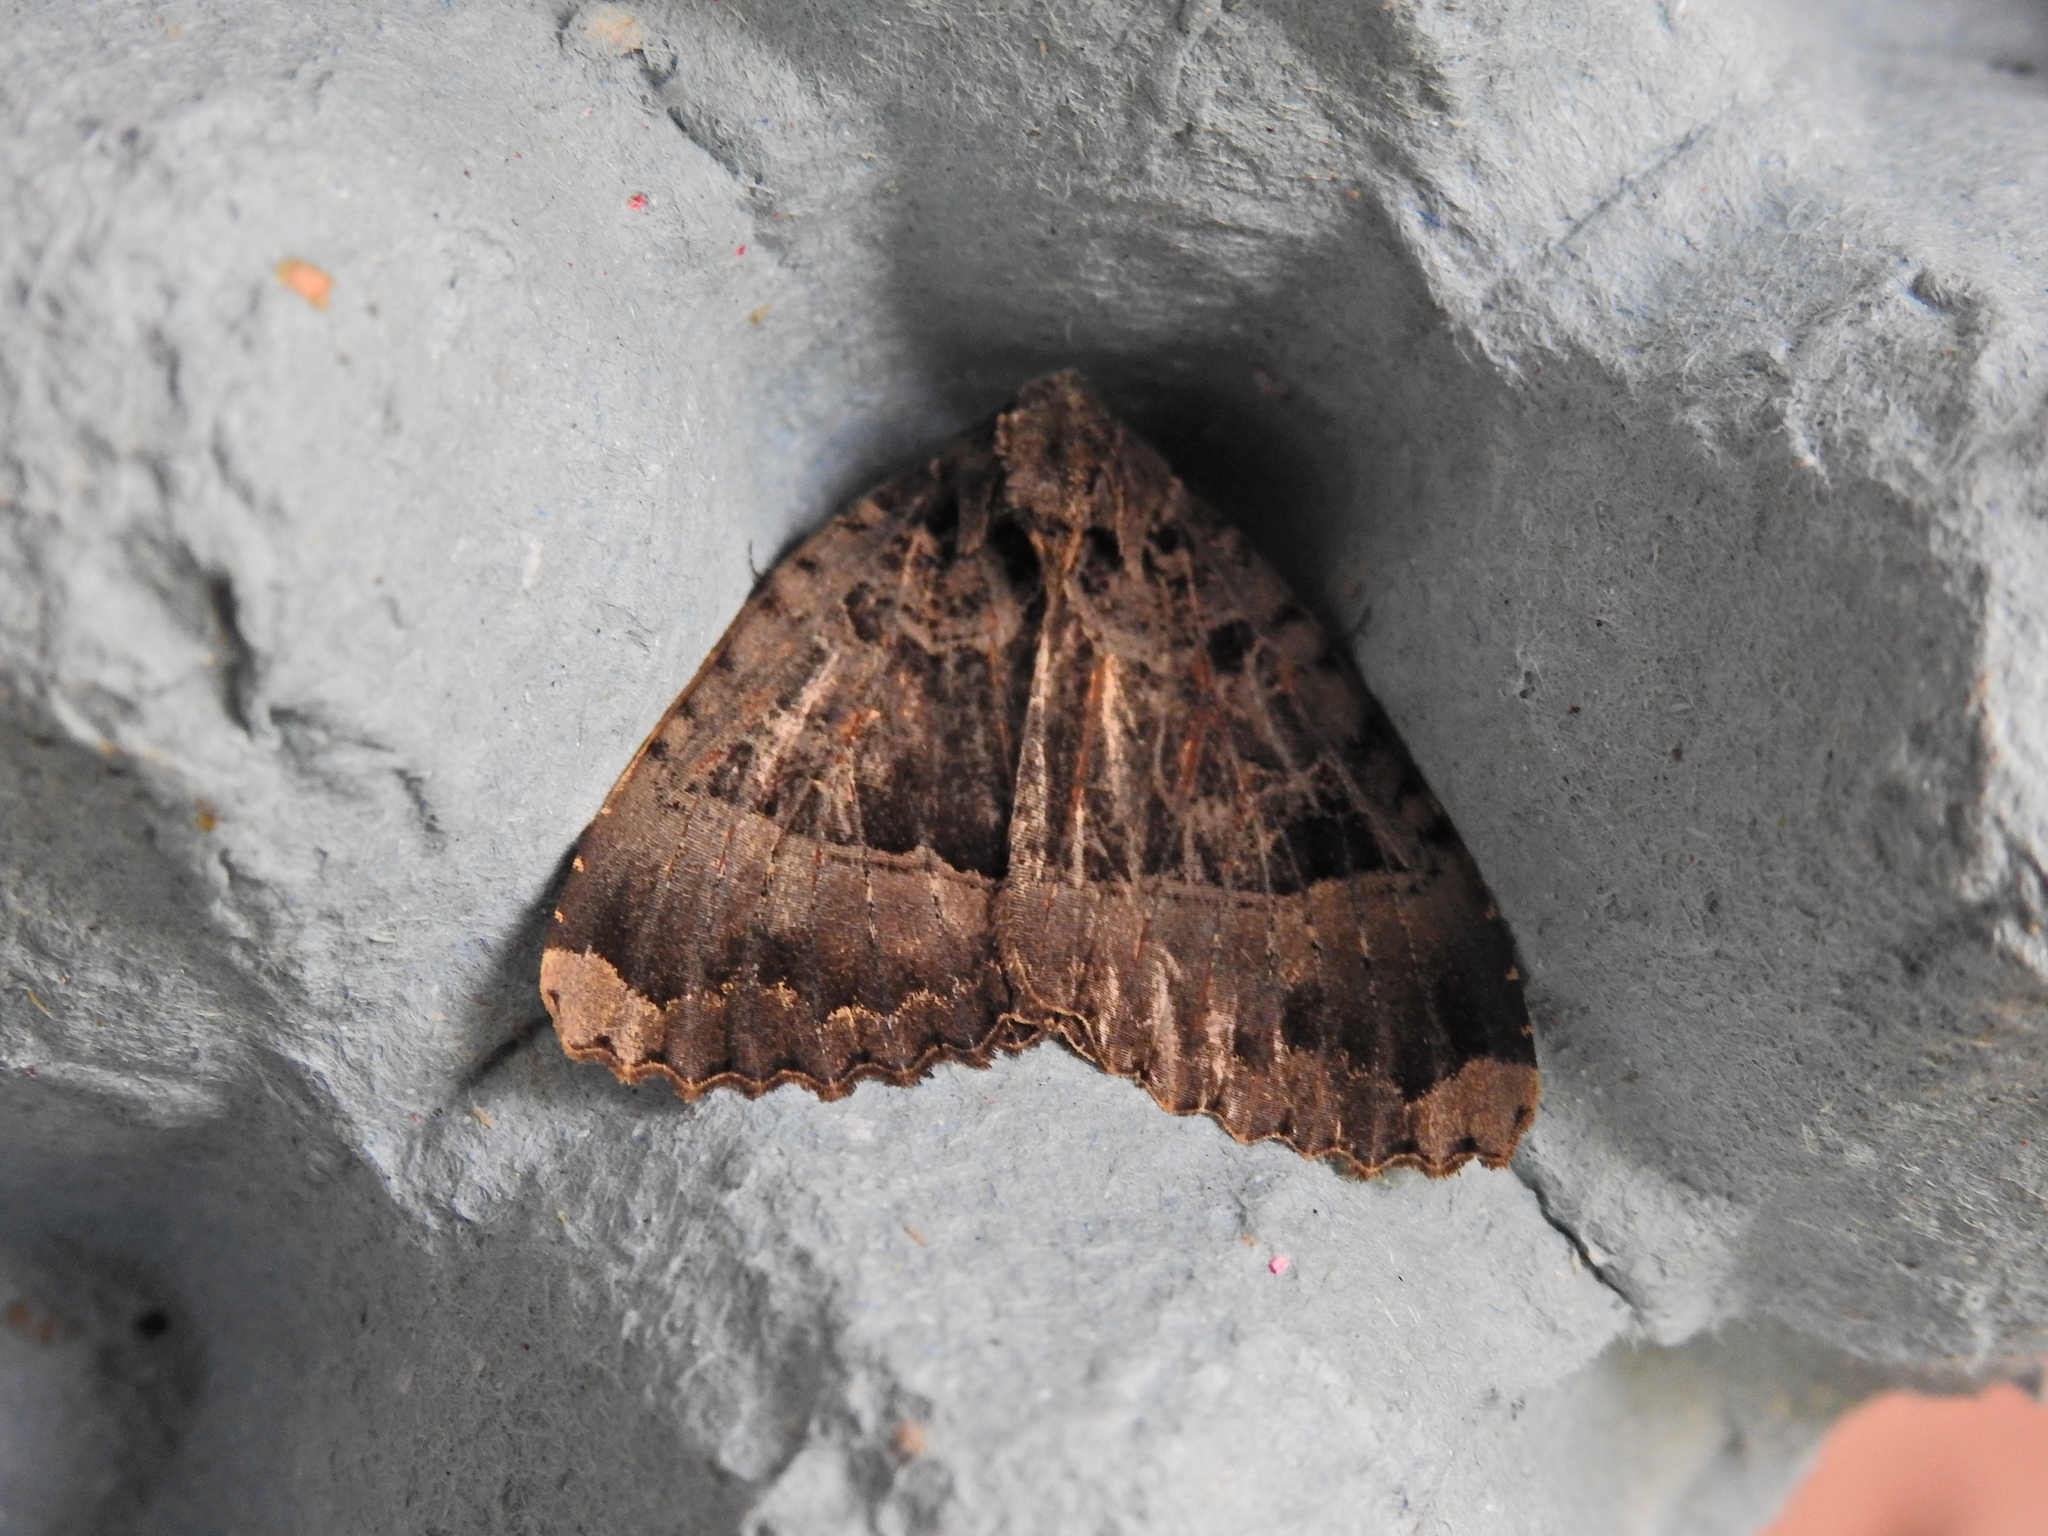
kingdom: Animalia
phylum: Arthropoda
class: Insecta
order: Lepidoptera
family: Noctuidae
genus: Mormo
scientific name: Mormo maura
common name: Old lady
